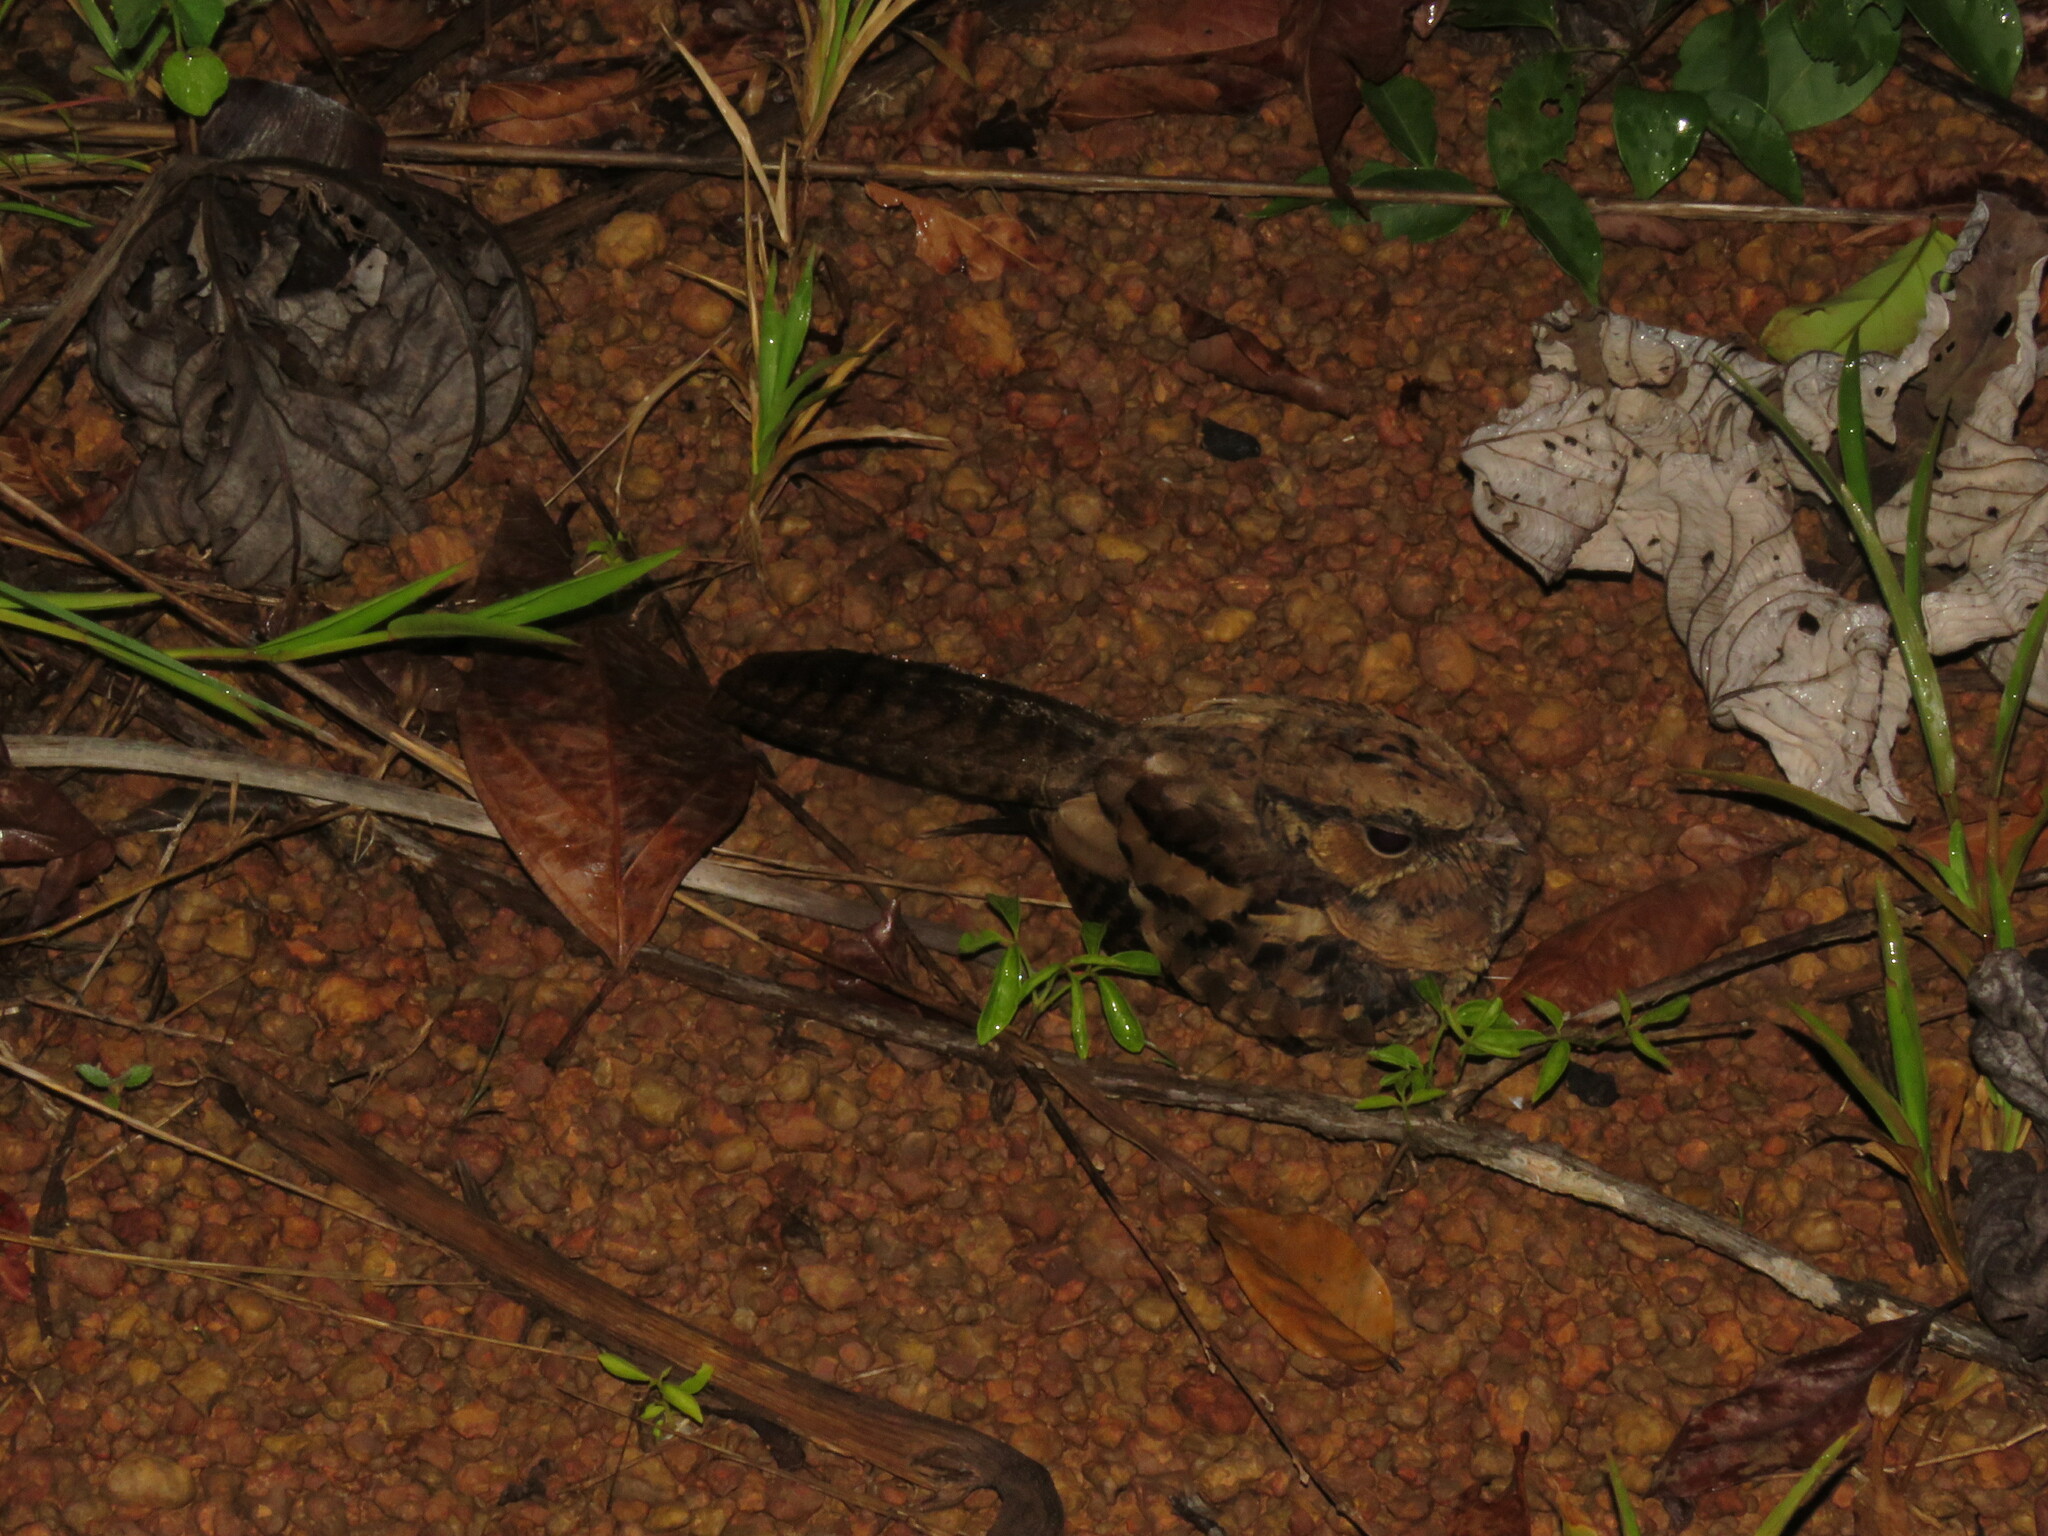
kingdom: Animalia
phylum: Chordata
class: Aves
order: Caprimulgiformes
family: Caprimulgidae
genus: Nyctidromus
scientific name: Nyctidromus albicollis
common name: Pauraque
